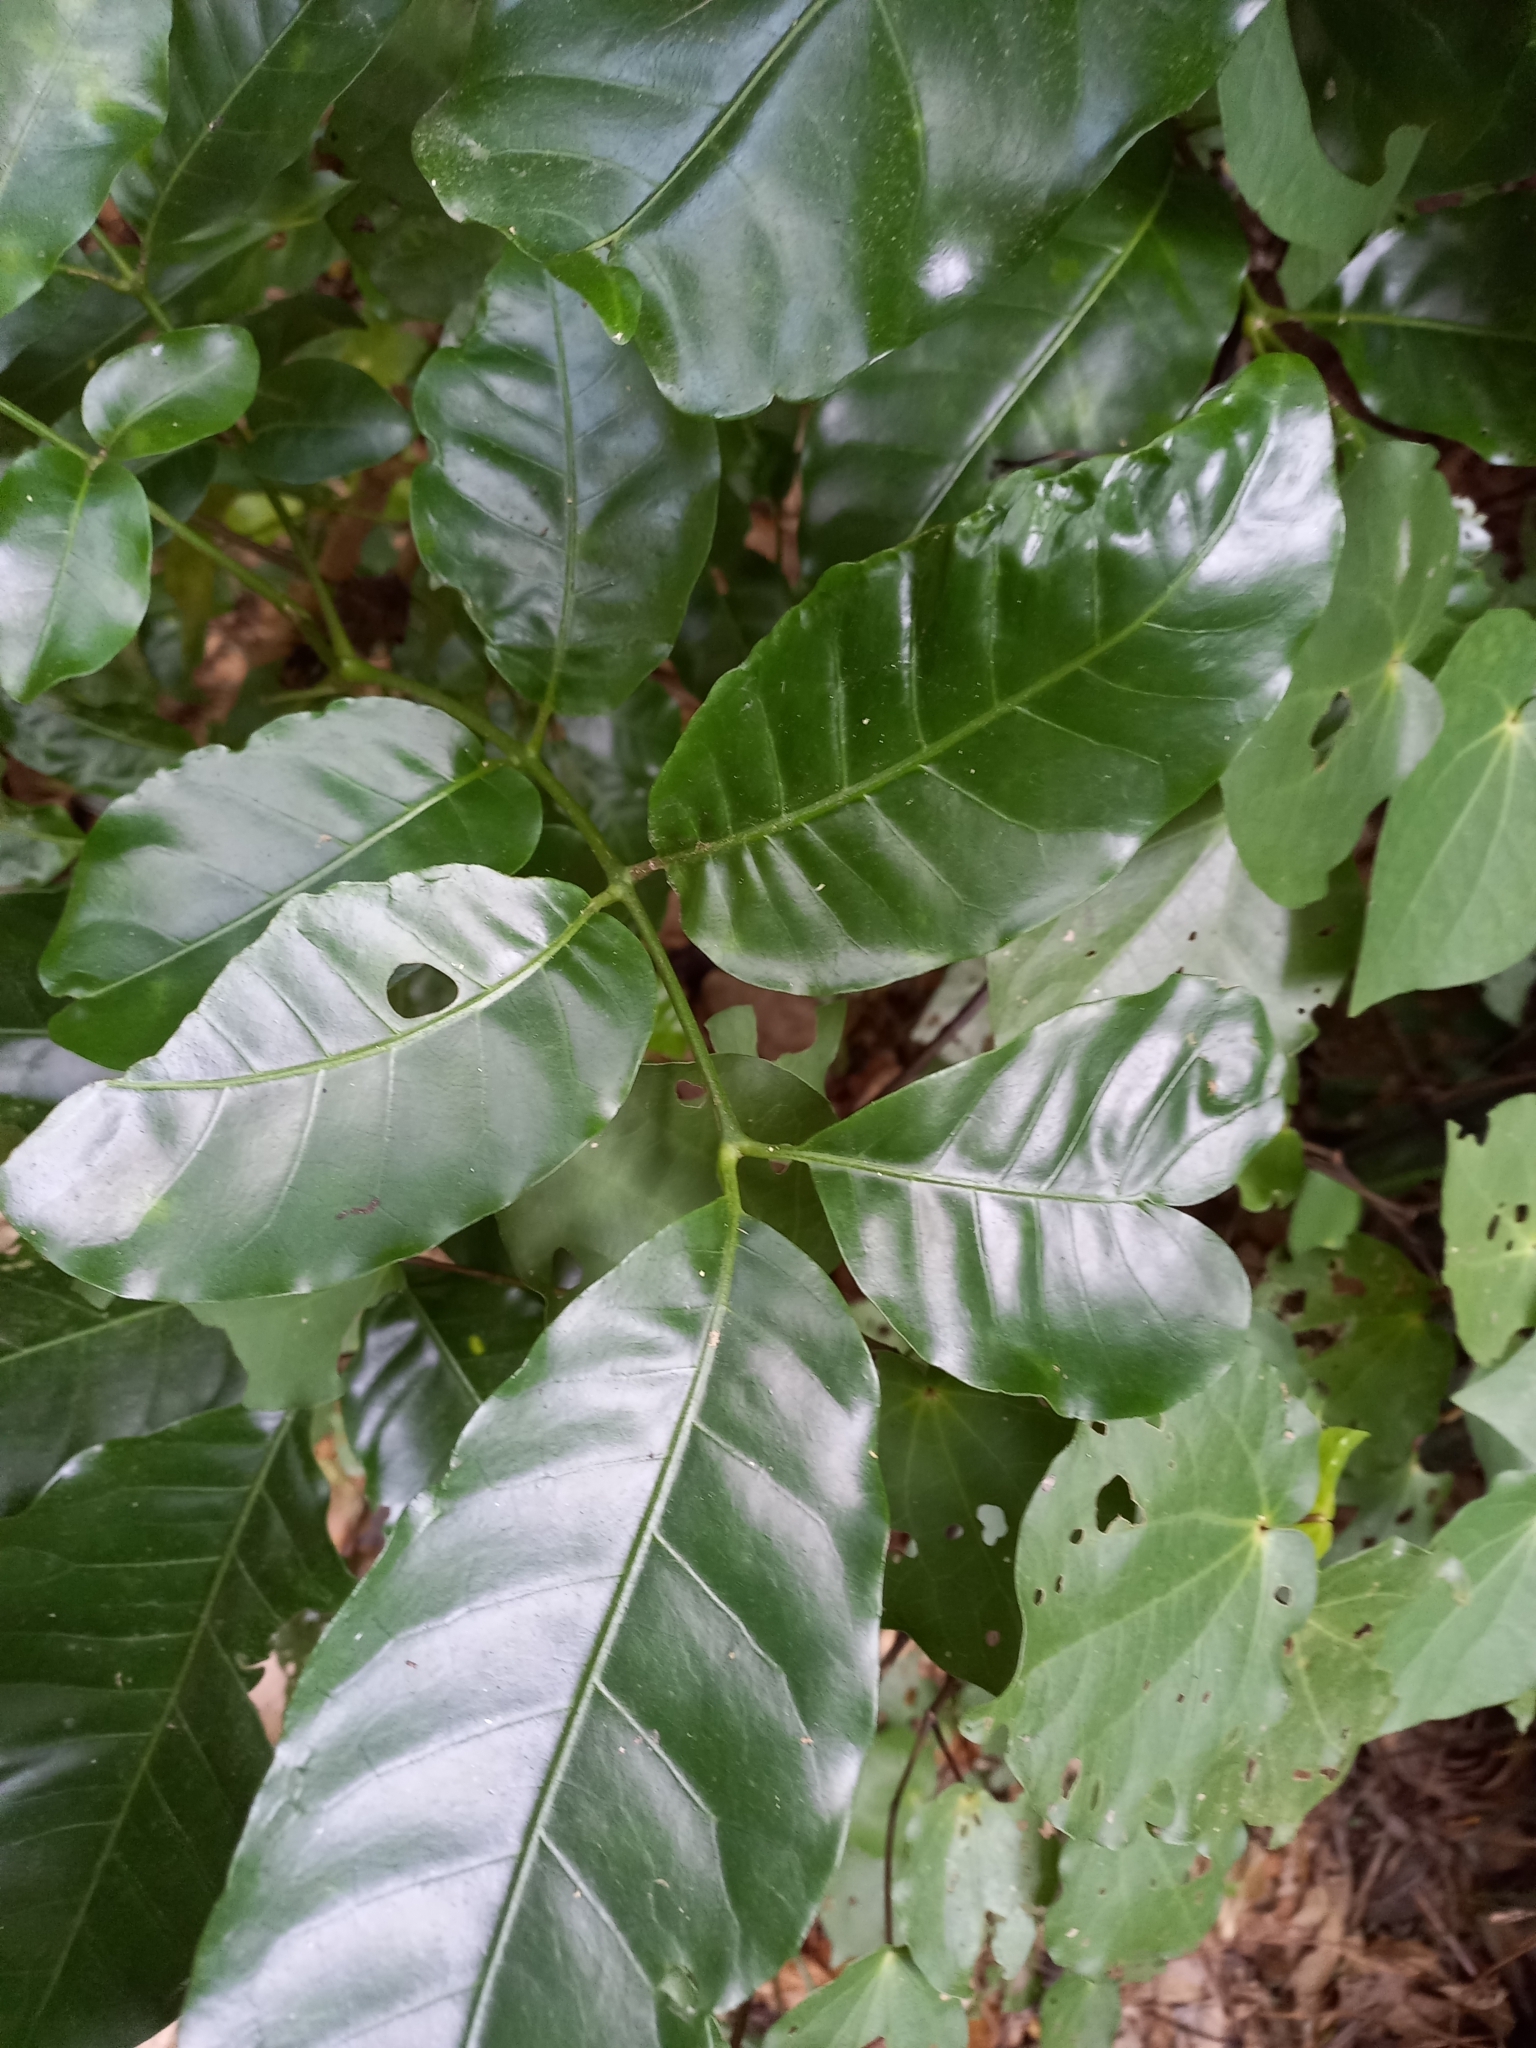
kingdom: Plantae
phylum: Tracheophyta
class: Magnoliopsida
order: Sapindales
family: Meliaceae
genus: Didymocheton
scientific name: Didymocheton spectabilis
